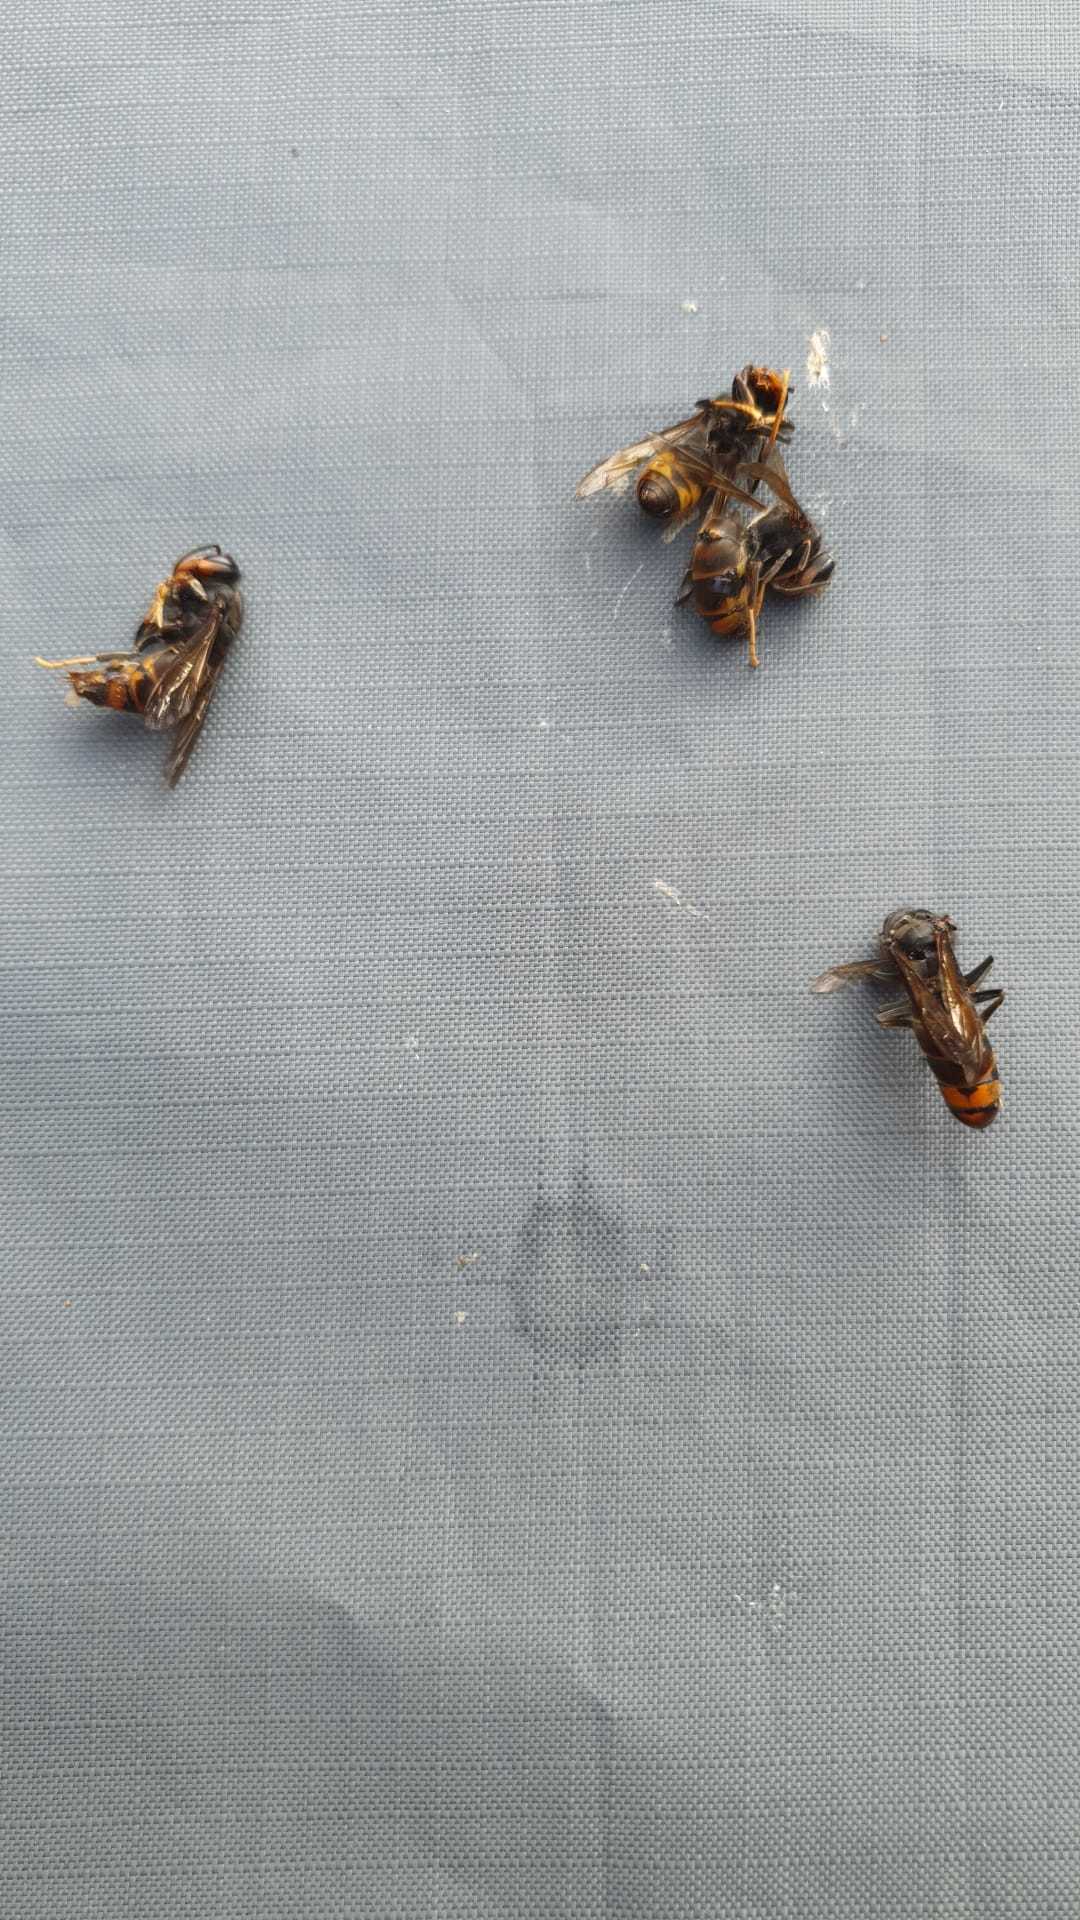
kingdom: Animalia
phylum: Arthropoda
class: Insecta
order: Hymenoptera
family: Vespidae
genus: Vespa
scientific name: Vespa velutina
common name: Asian hornet
